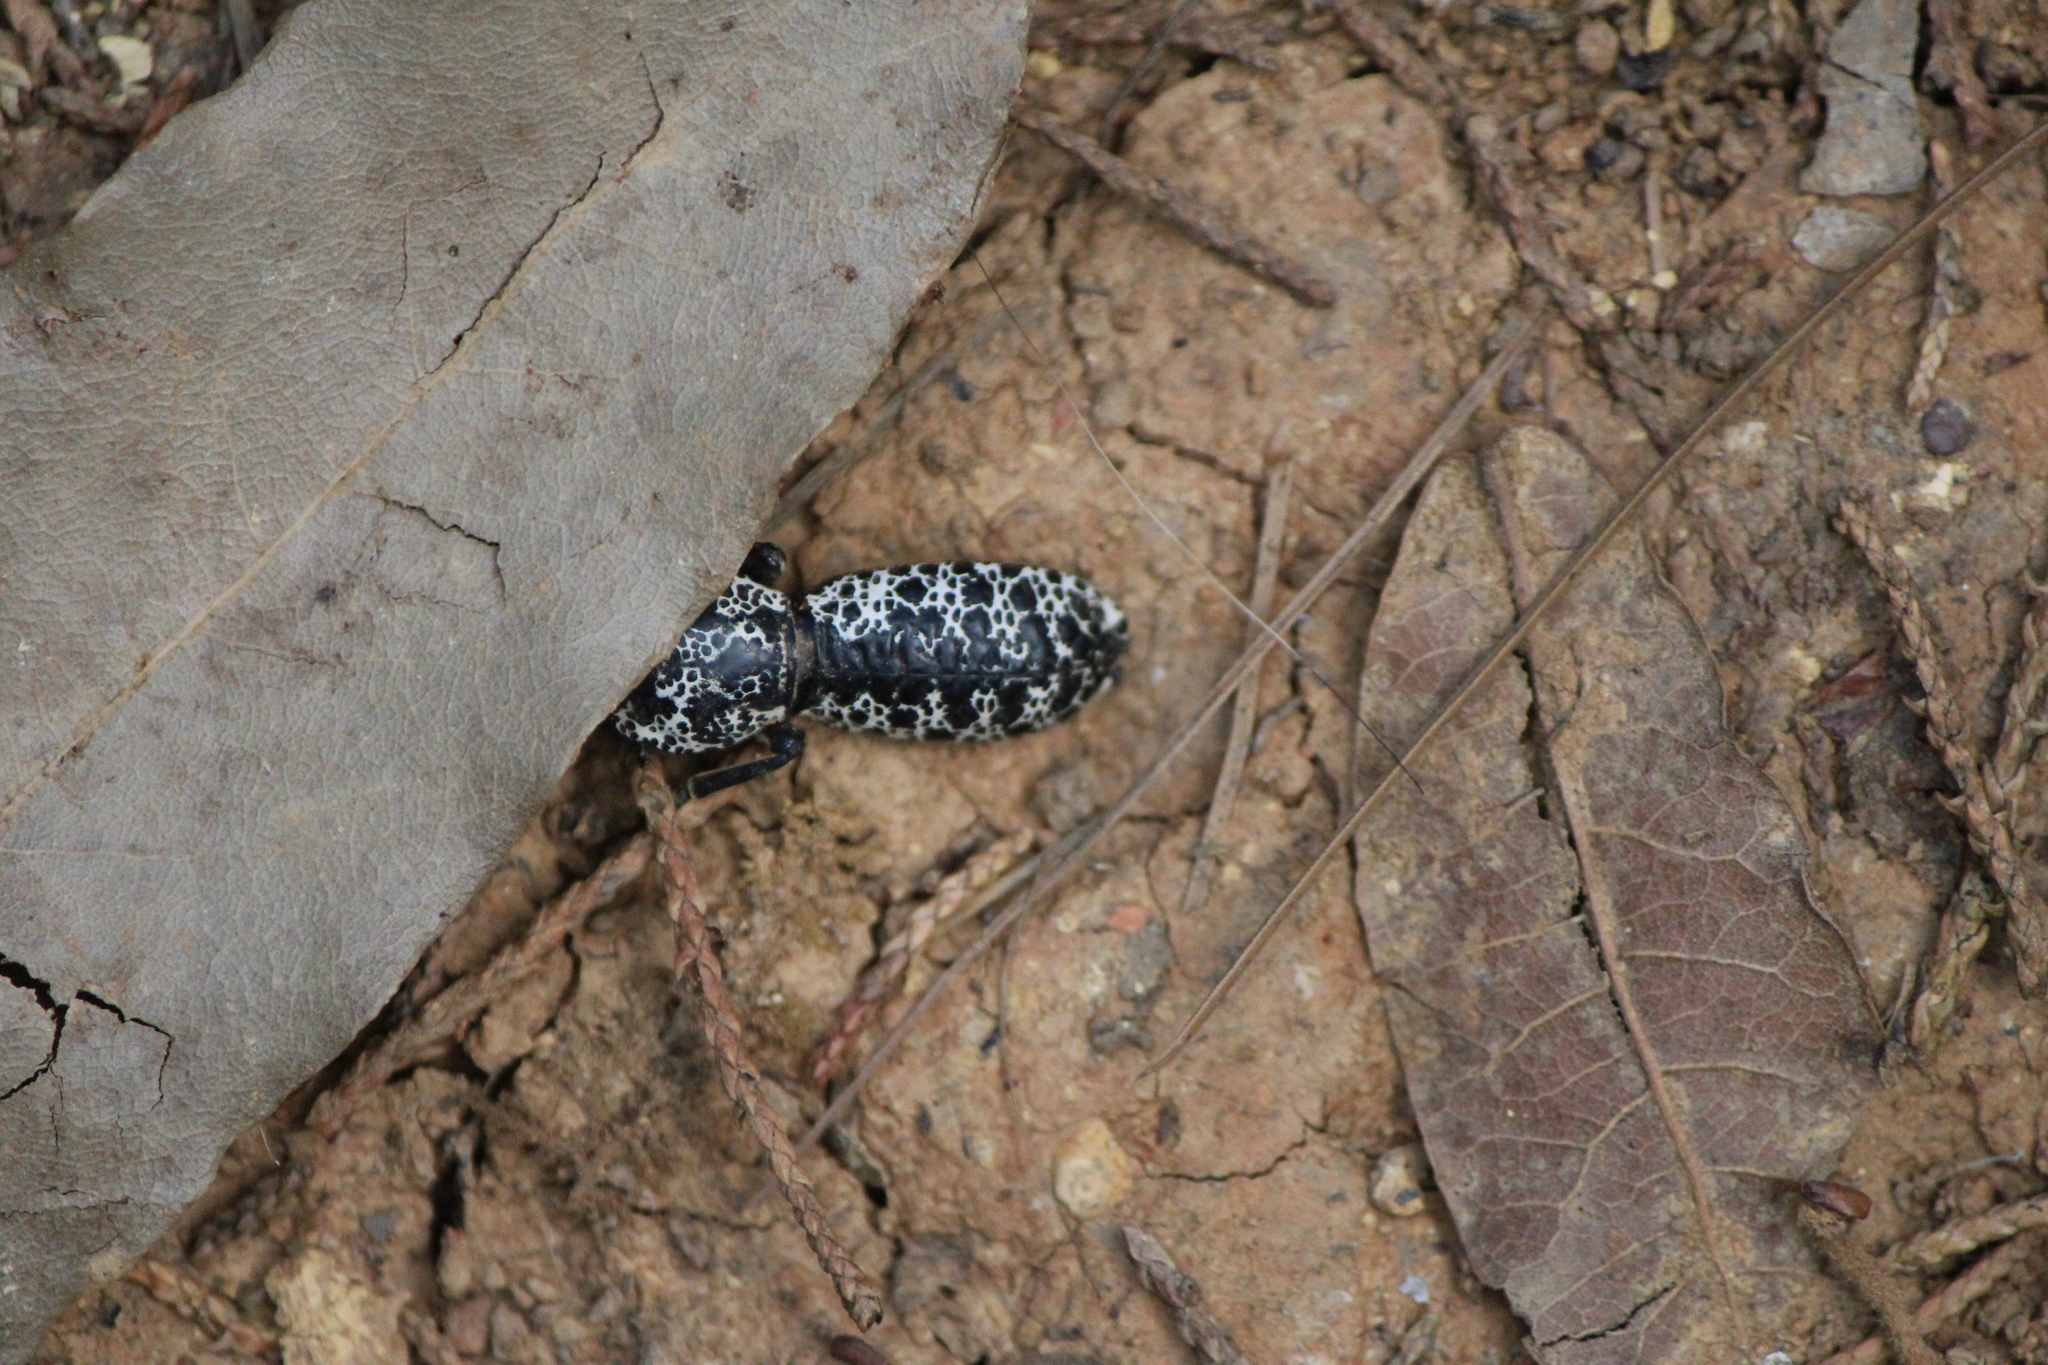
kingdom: Animalia
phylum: Arthropoda
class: Insecta
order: Coleoptera
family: Zopheridae
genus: Zopherus
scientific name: Zopherus nodulosus
